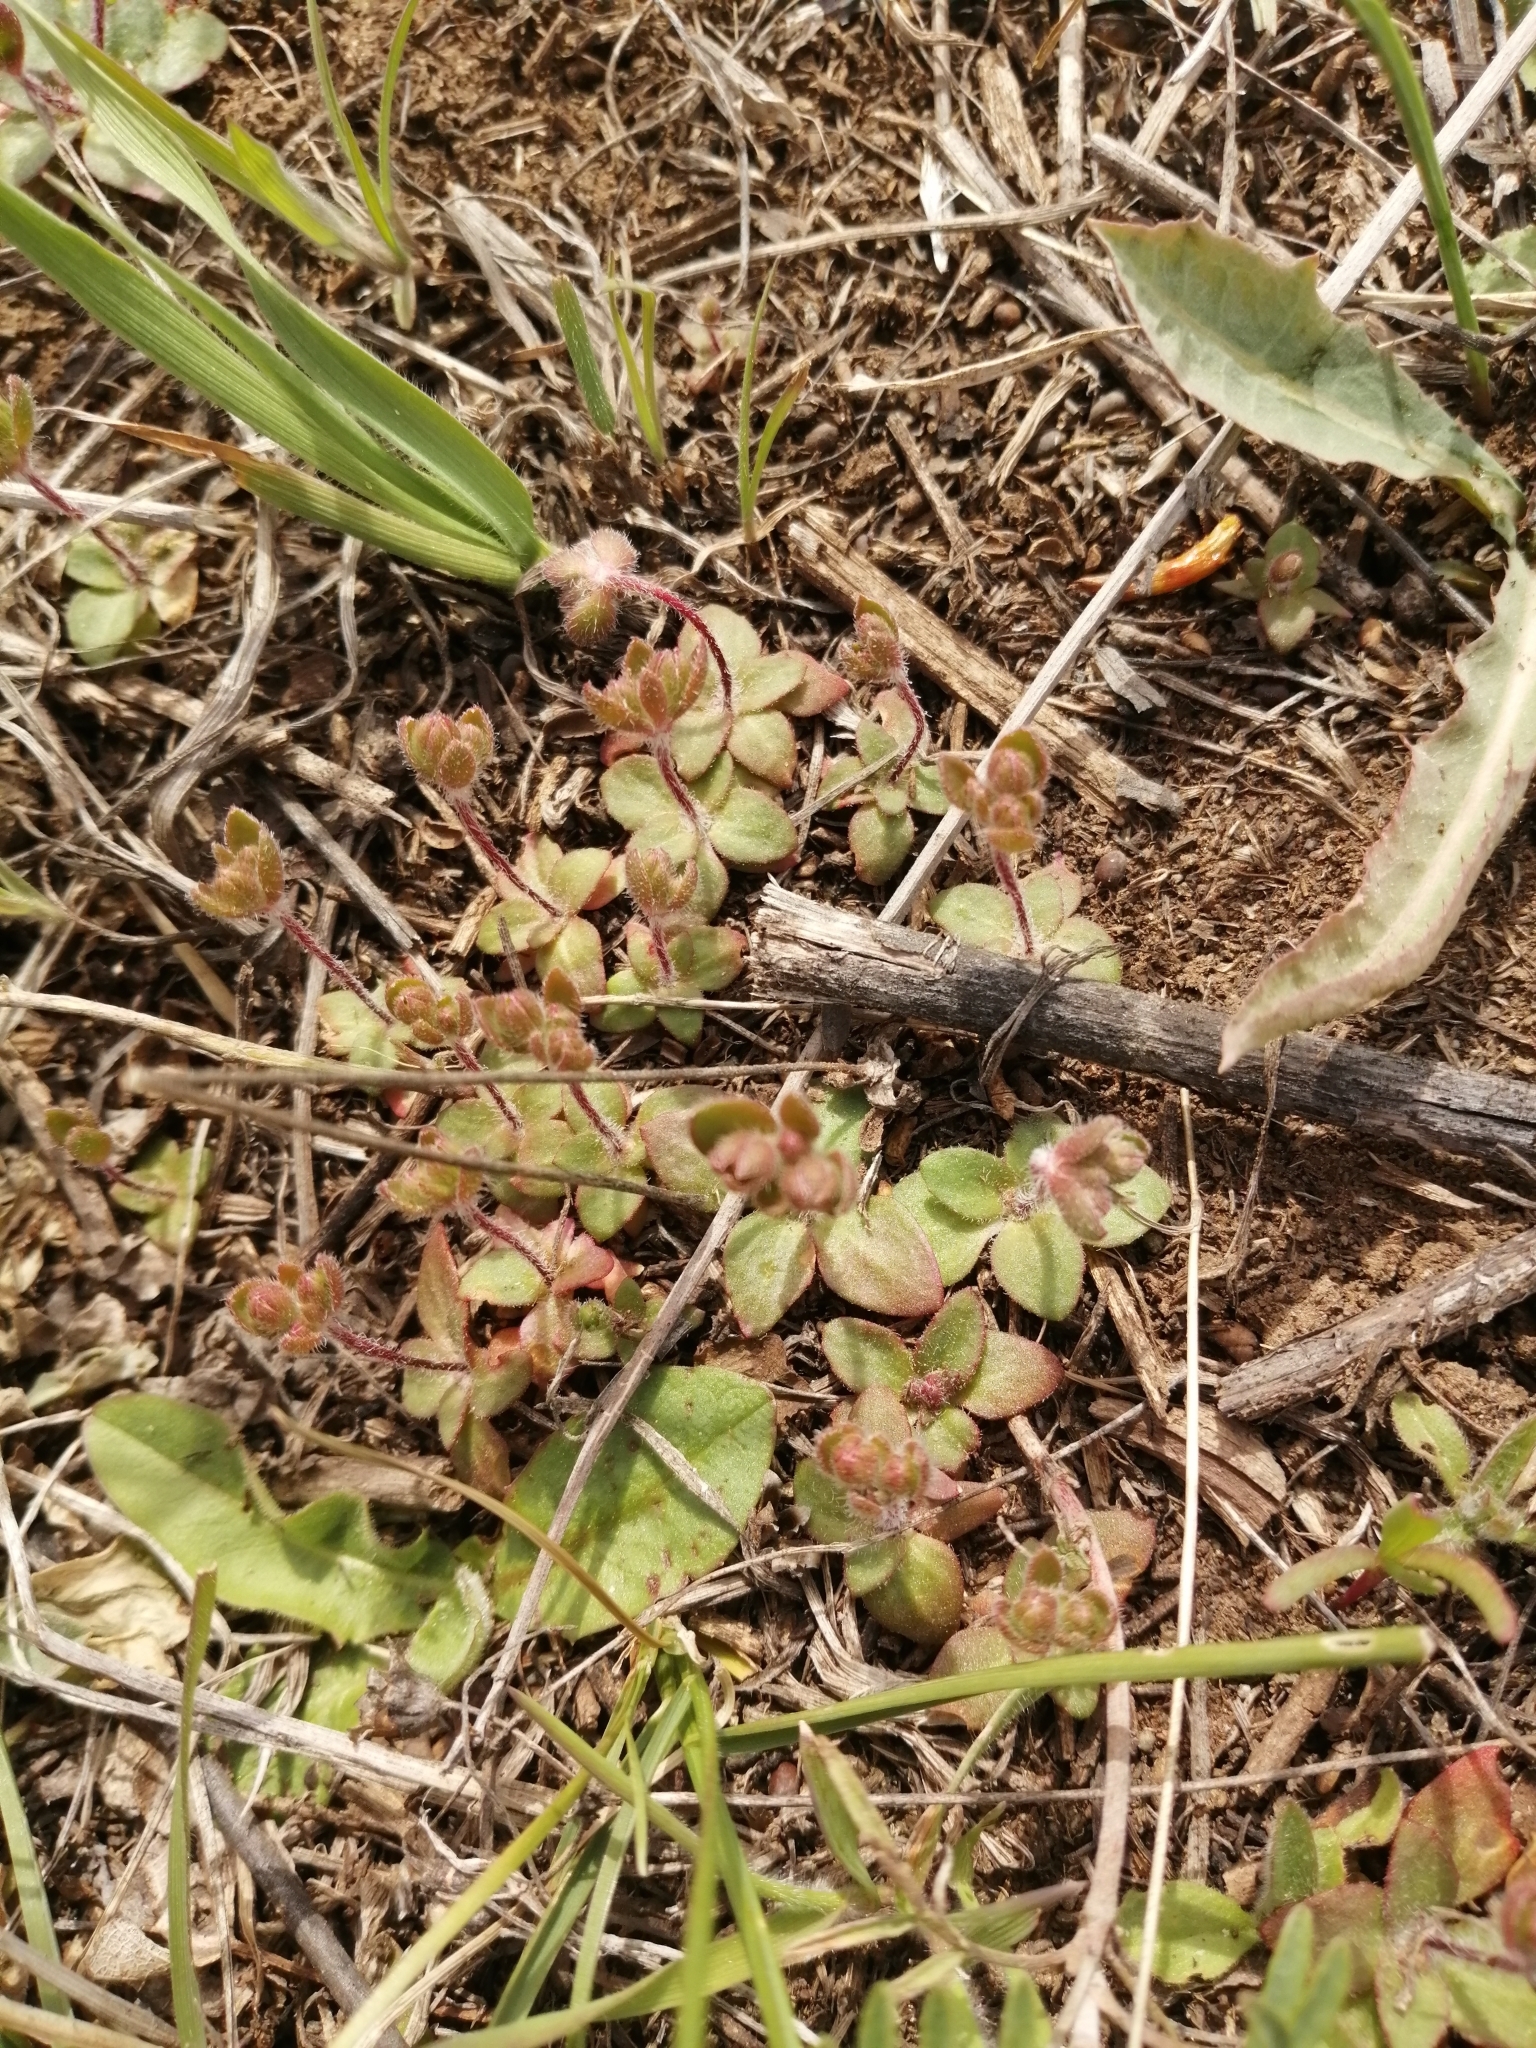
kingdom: Plantae
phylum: Tracheophyta
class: Magnoliopsida
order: Ericales
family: Primulaceae
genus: Androsace
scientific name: Androsace maxima
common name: Annual androsace
